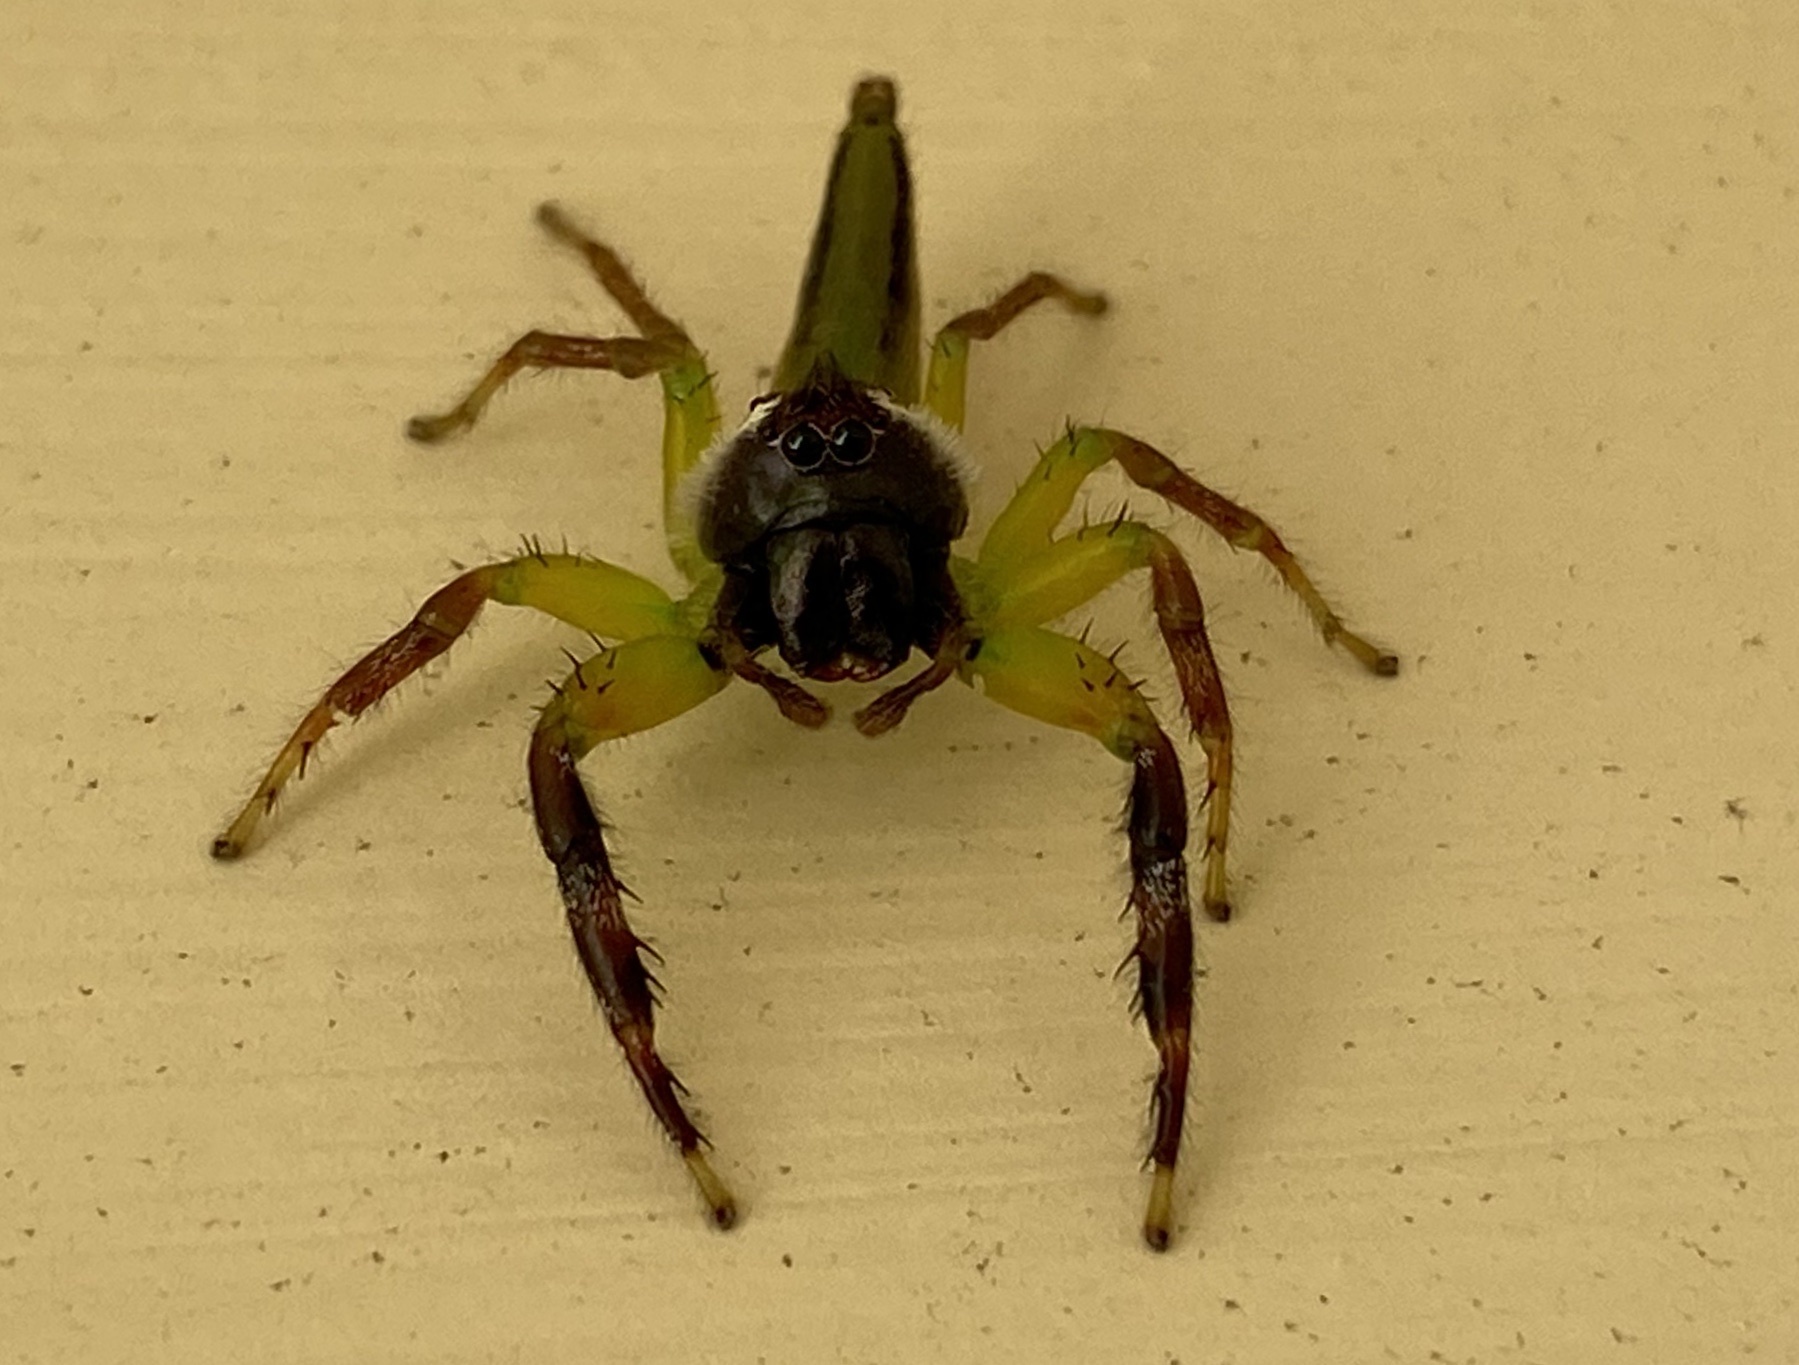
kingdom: Animalia
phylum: Arthropoda
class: Arachnida
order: Araneae
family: Salticidae
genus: Mopsus
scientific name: Mopsus mormon
